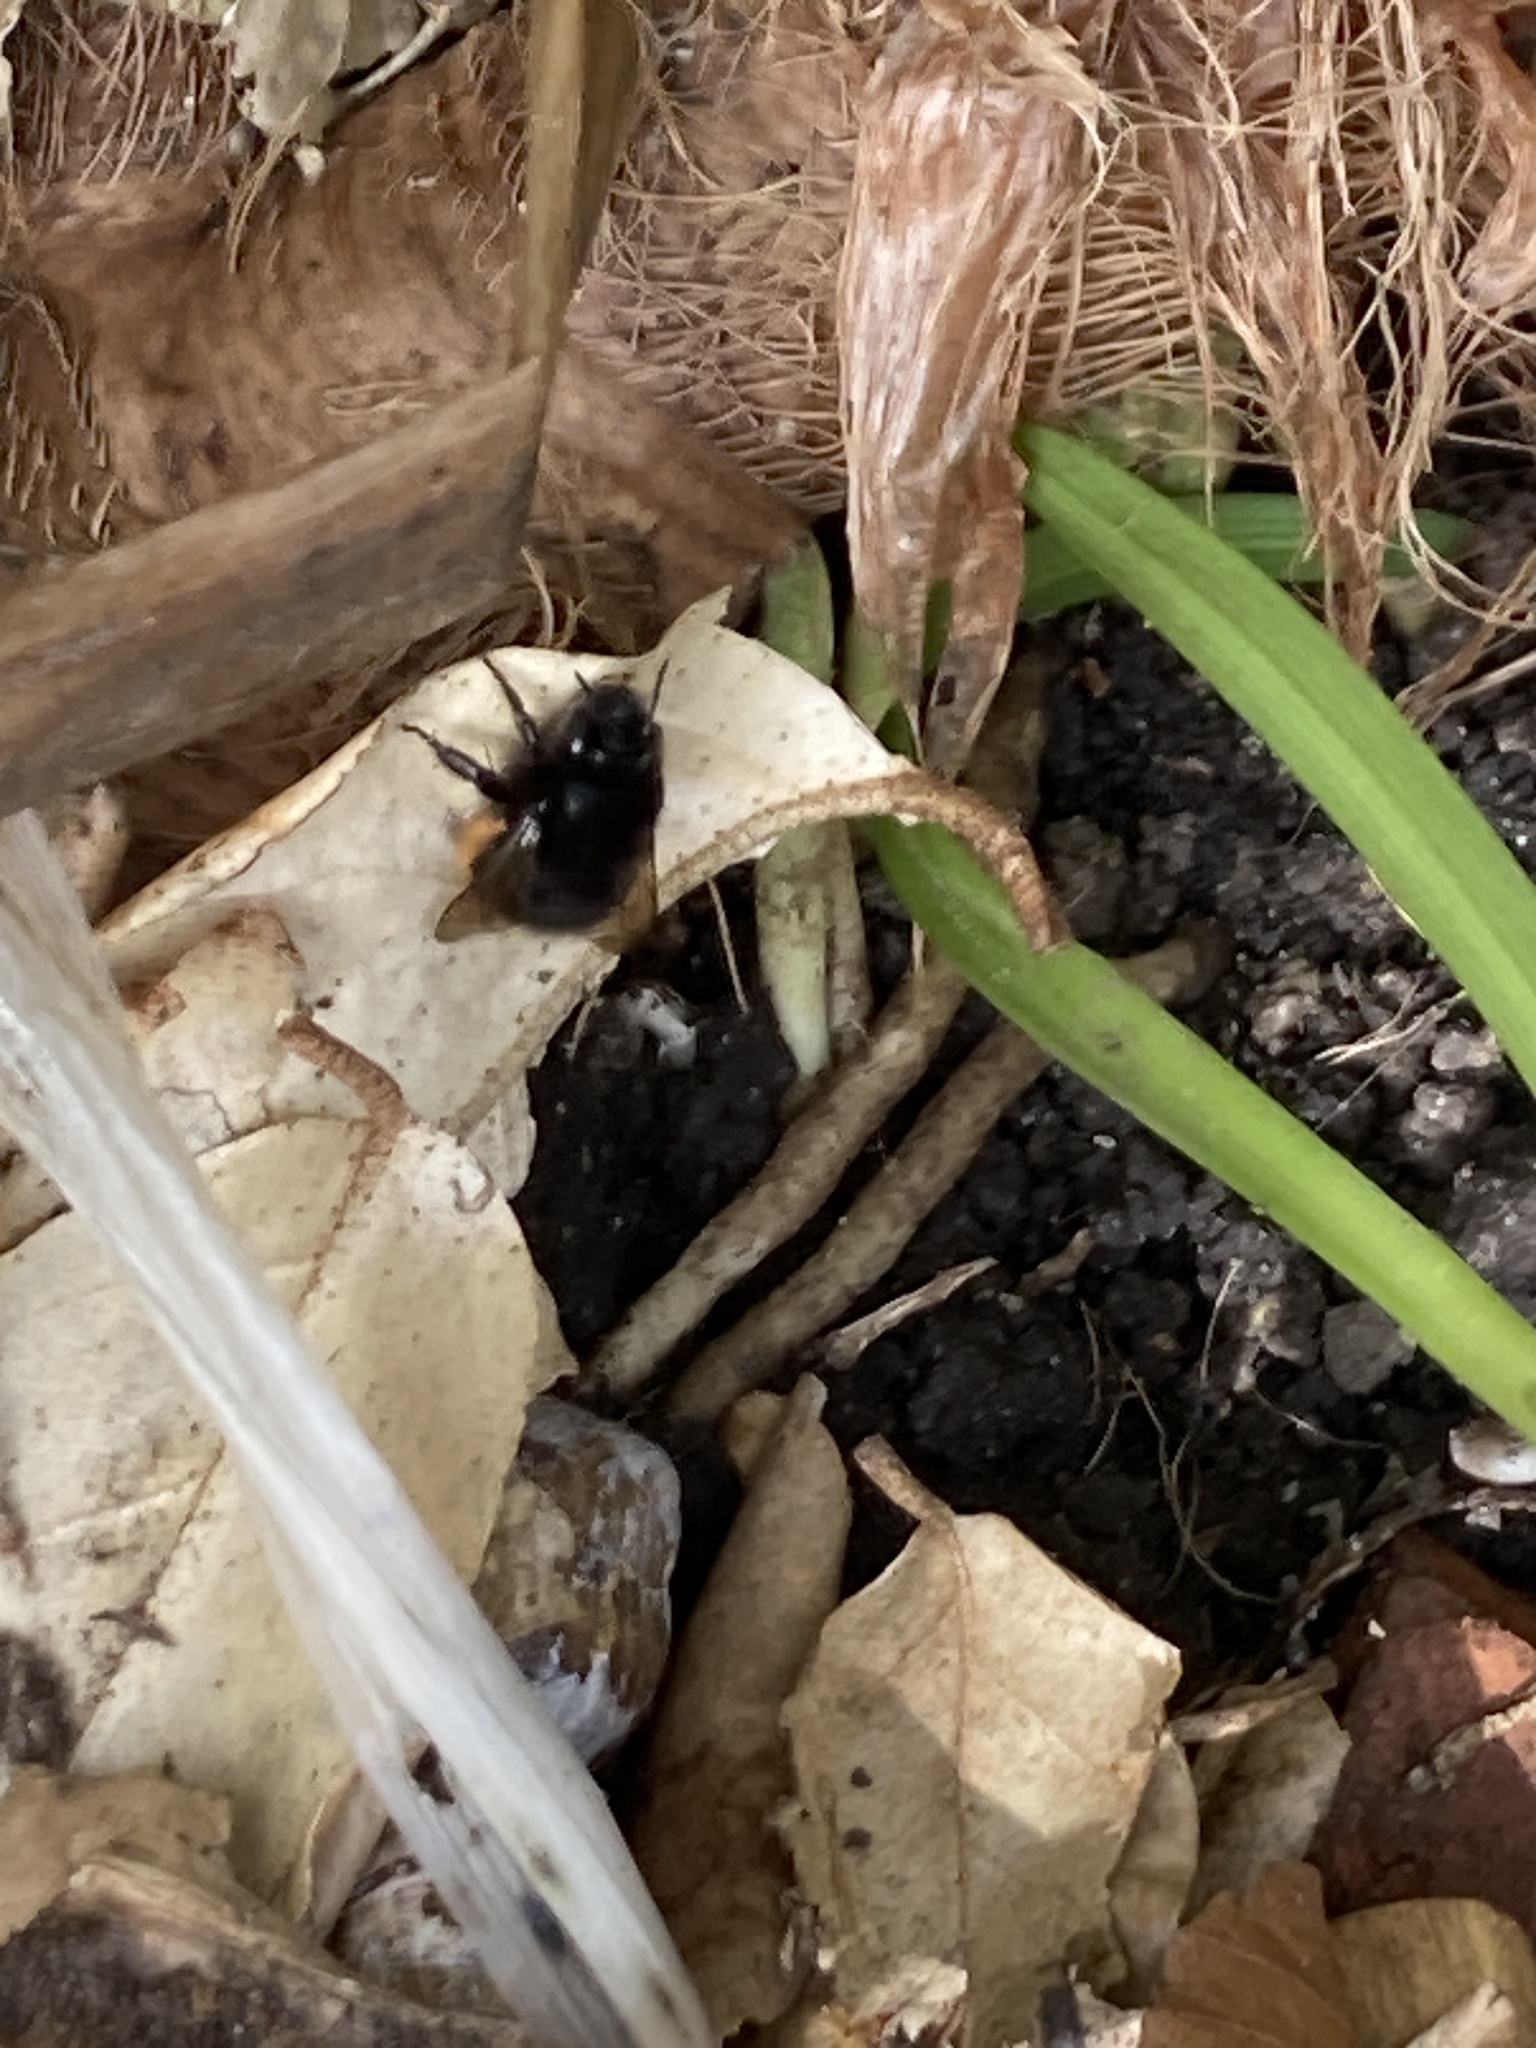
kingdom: Animalia
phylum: Arthropoda
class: Insecta
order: Hymenoptera
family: Apidae
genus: Anthophora
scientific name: Anthophora plumipes
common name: Hairy-footed flower bee
